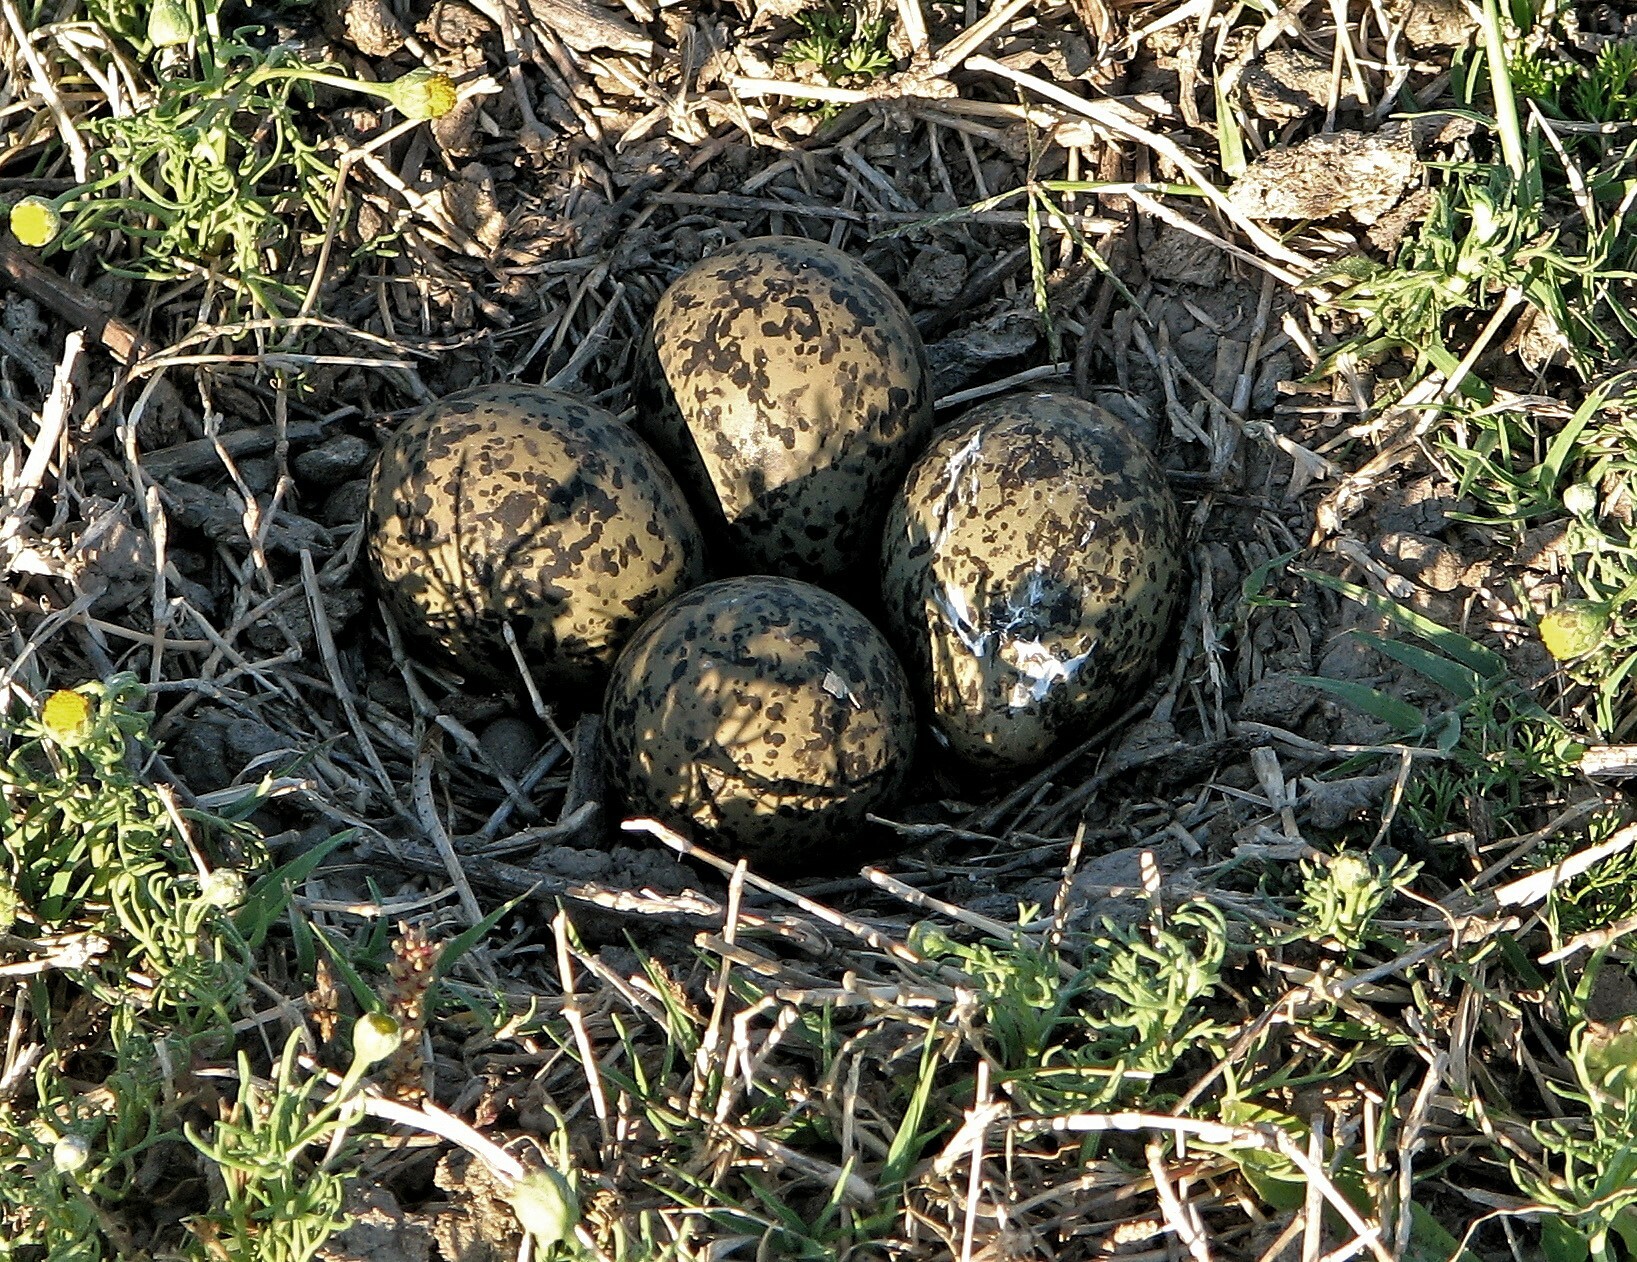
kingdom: Animalia
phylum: Chordata
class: Aves
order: Charadriiformes
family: Charadriidae
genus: Vanellus
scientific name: Vanellus chilensis
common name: Southern lapwing
